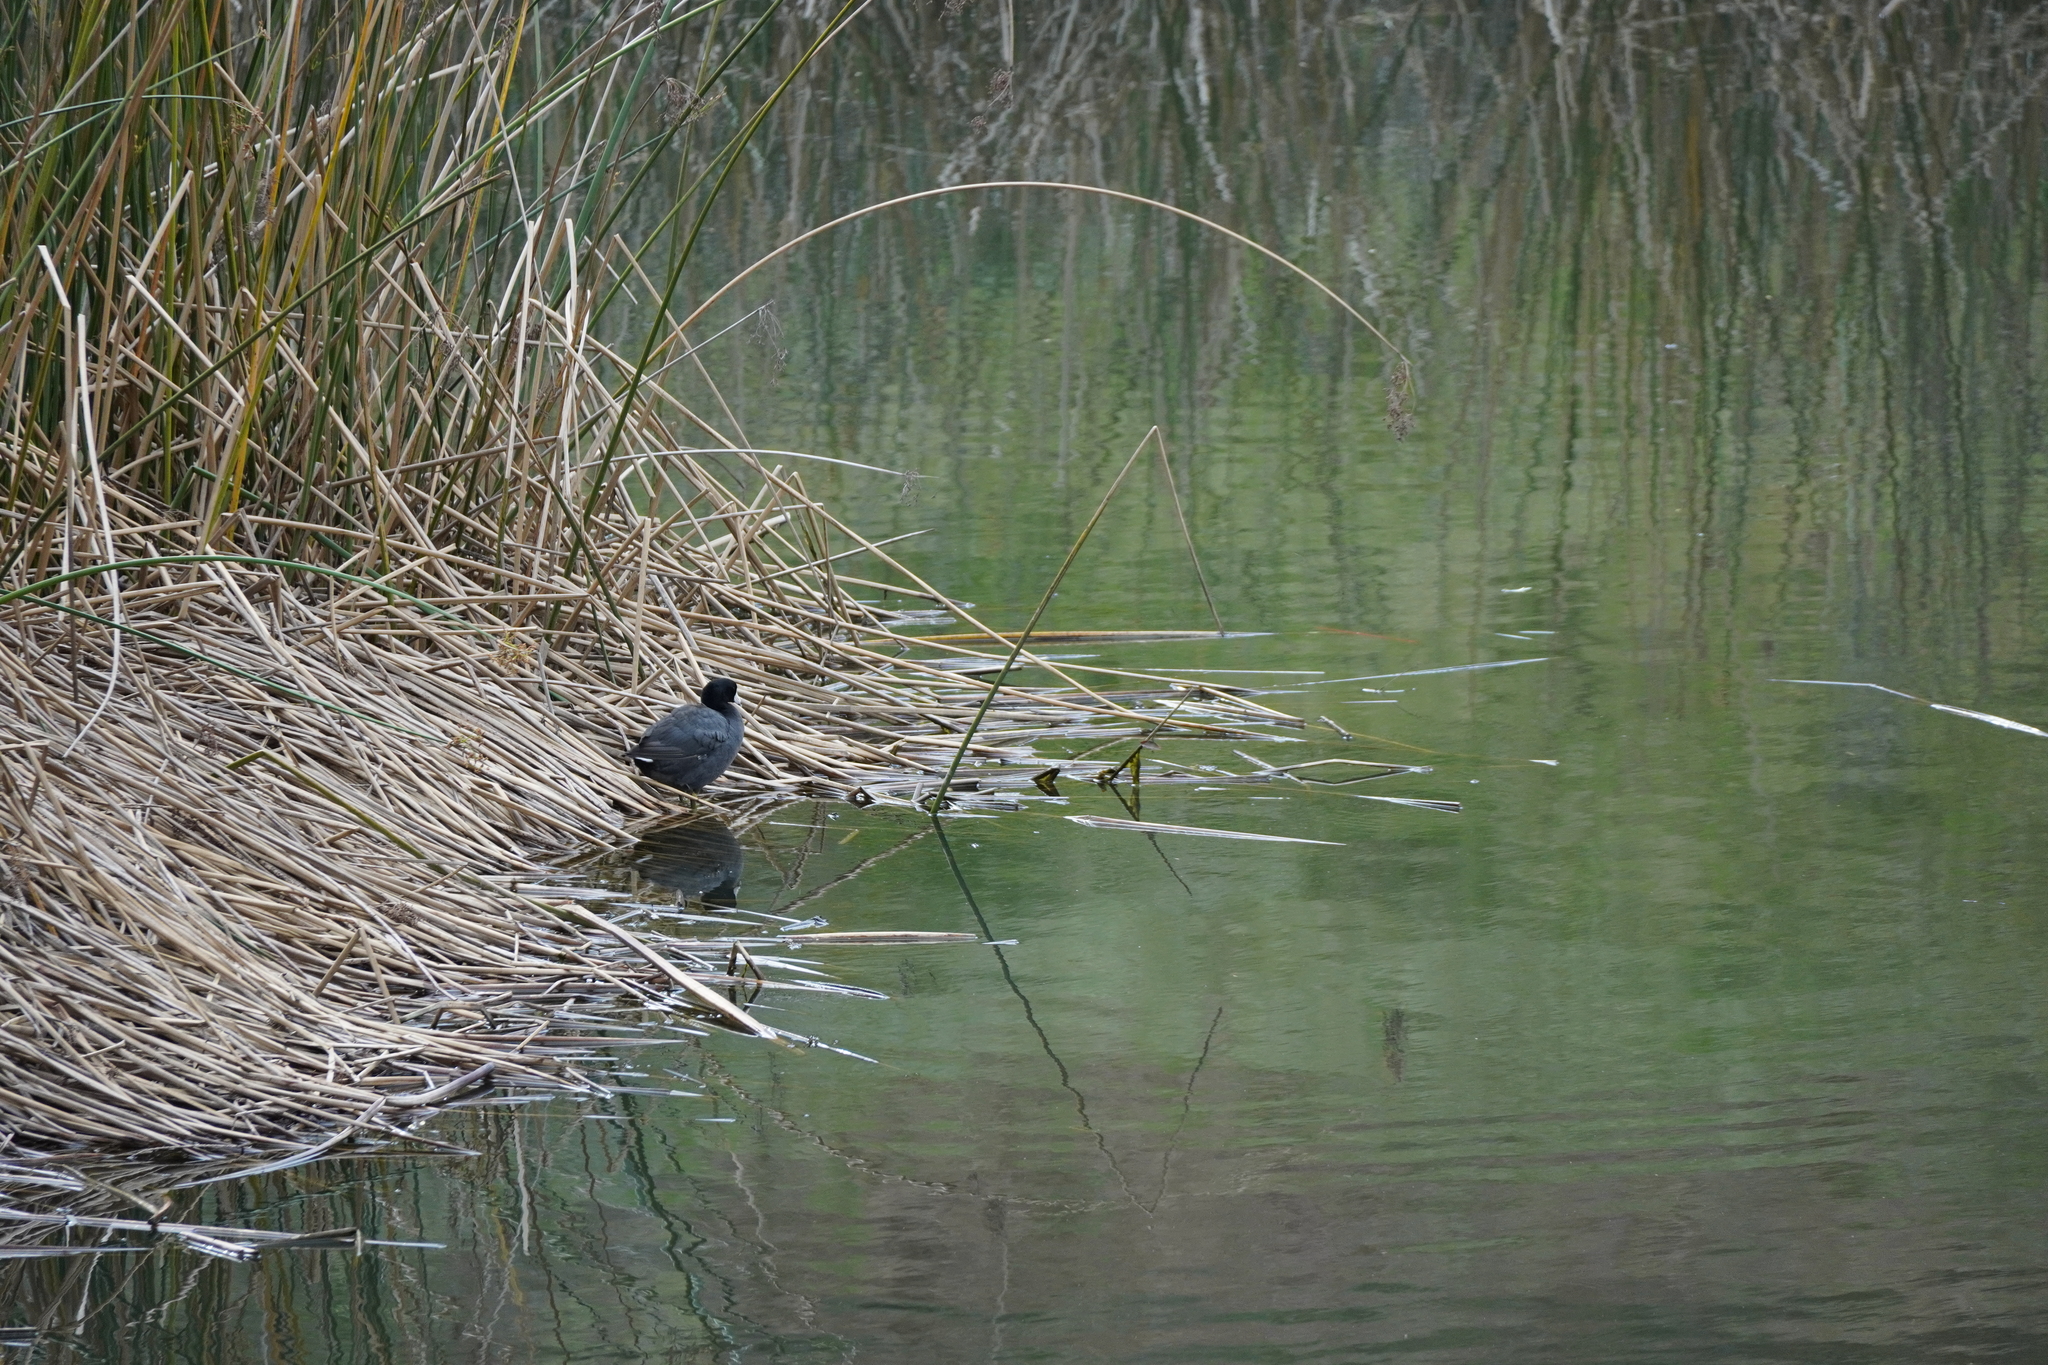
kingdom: Animalia
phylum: Chordata
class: Aves
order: Gruiformes
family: Rallidae
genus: Fulica
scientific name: Fulica americana
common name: American coot
